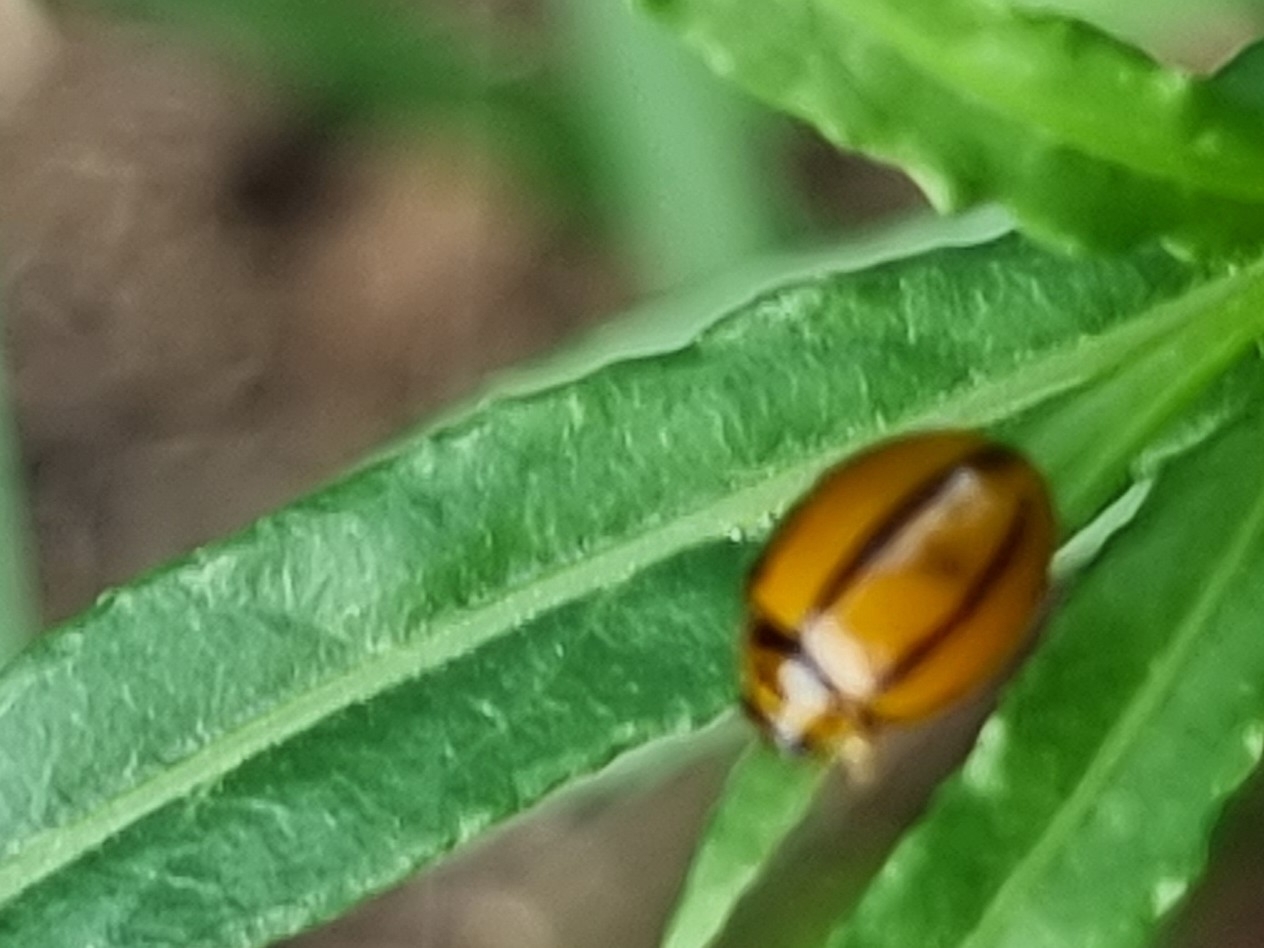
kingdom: Animalia
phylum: Arthropoda
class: Insecta
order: Coleoptera
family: Coccinellidae
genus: Coelophora
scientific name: Coelophora inaequalis
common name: Common australian lady beetle
